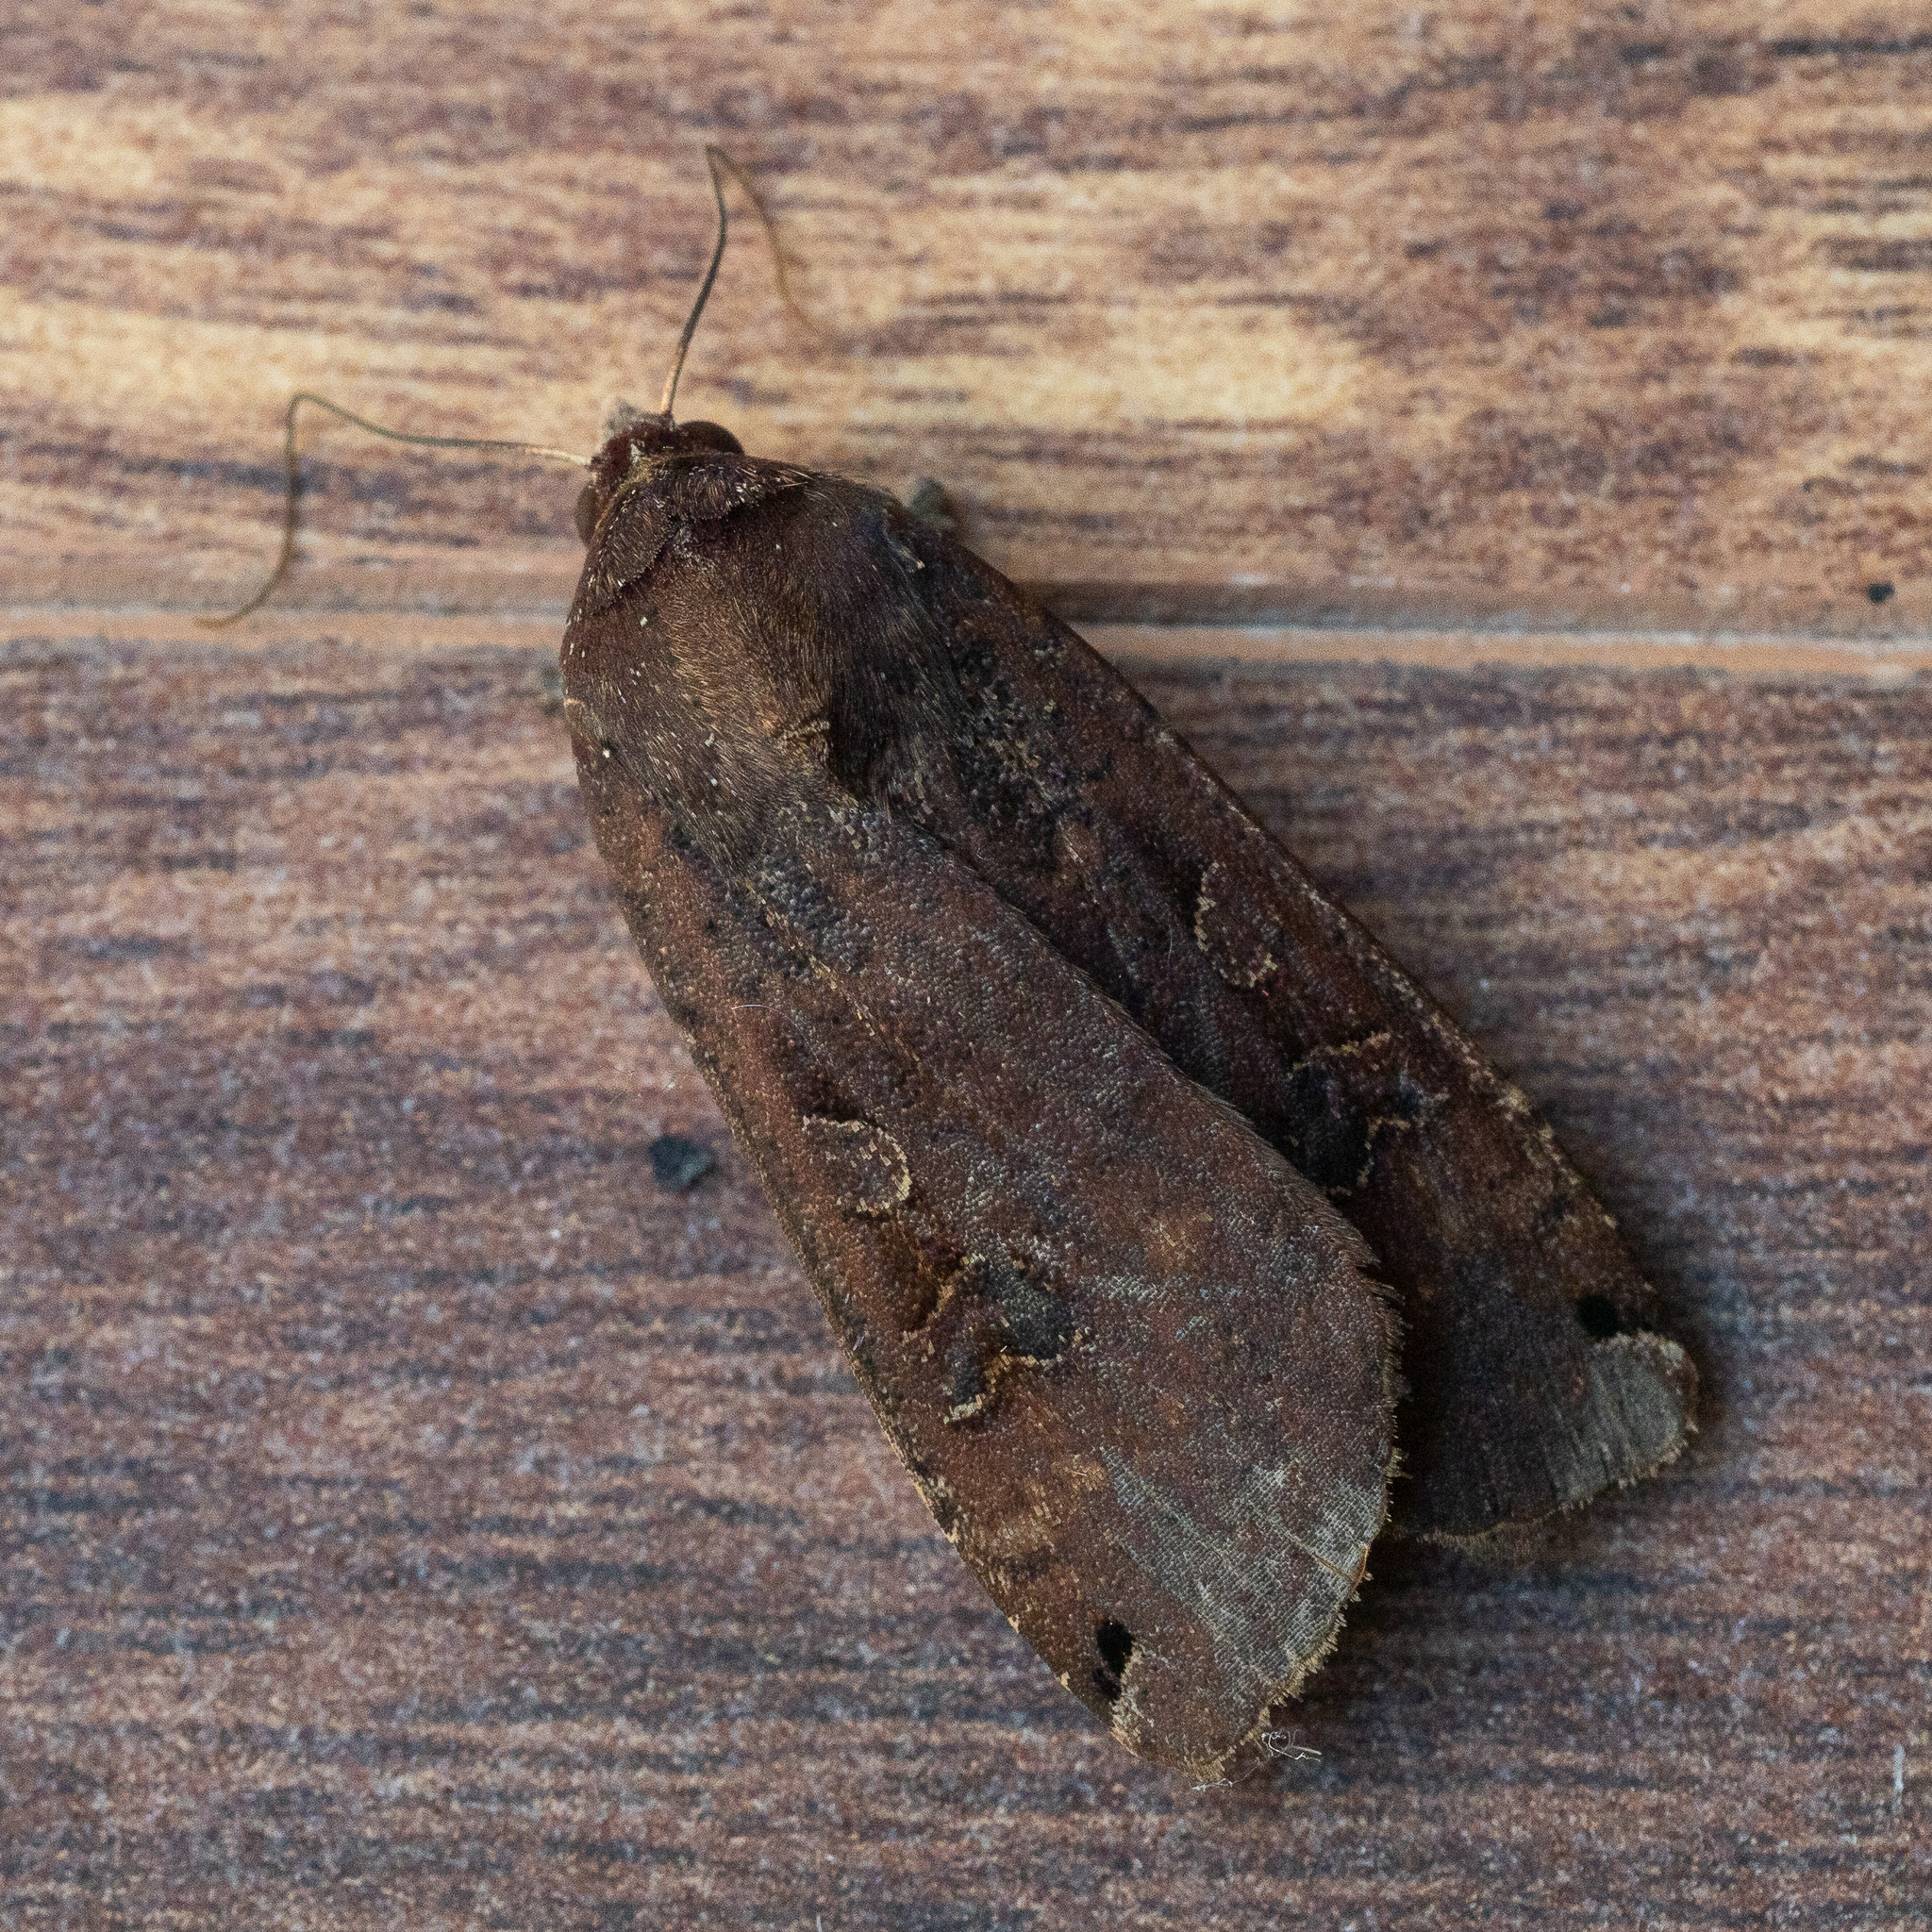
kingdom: Animalia
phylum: Arthropoda
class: Insecta
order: Lepidoptera
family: Noctuidae
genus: Noctua
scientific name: Noctua pronuba
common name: Large yellow underwing
